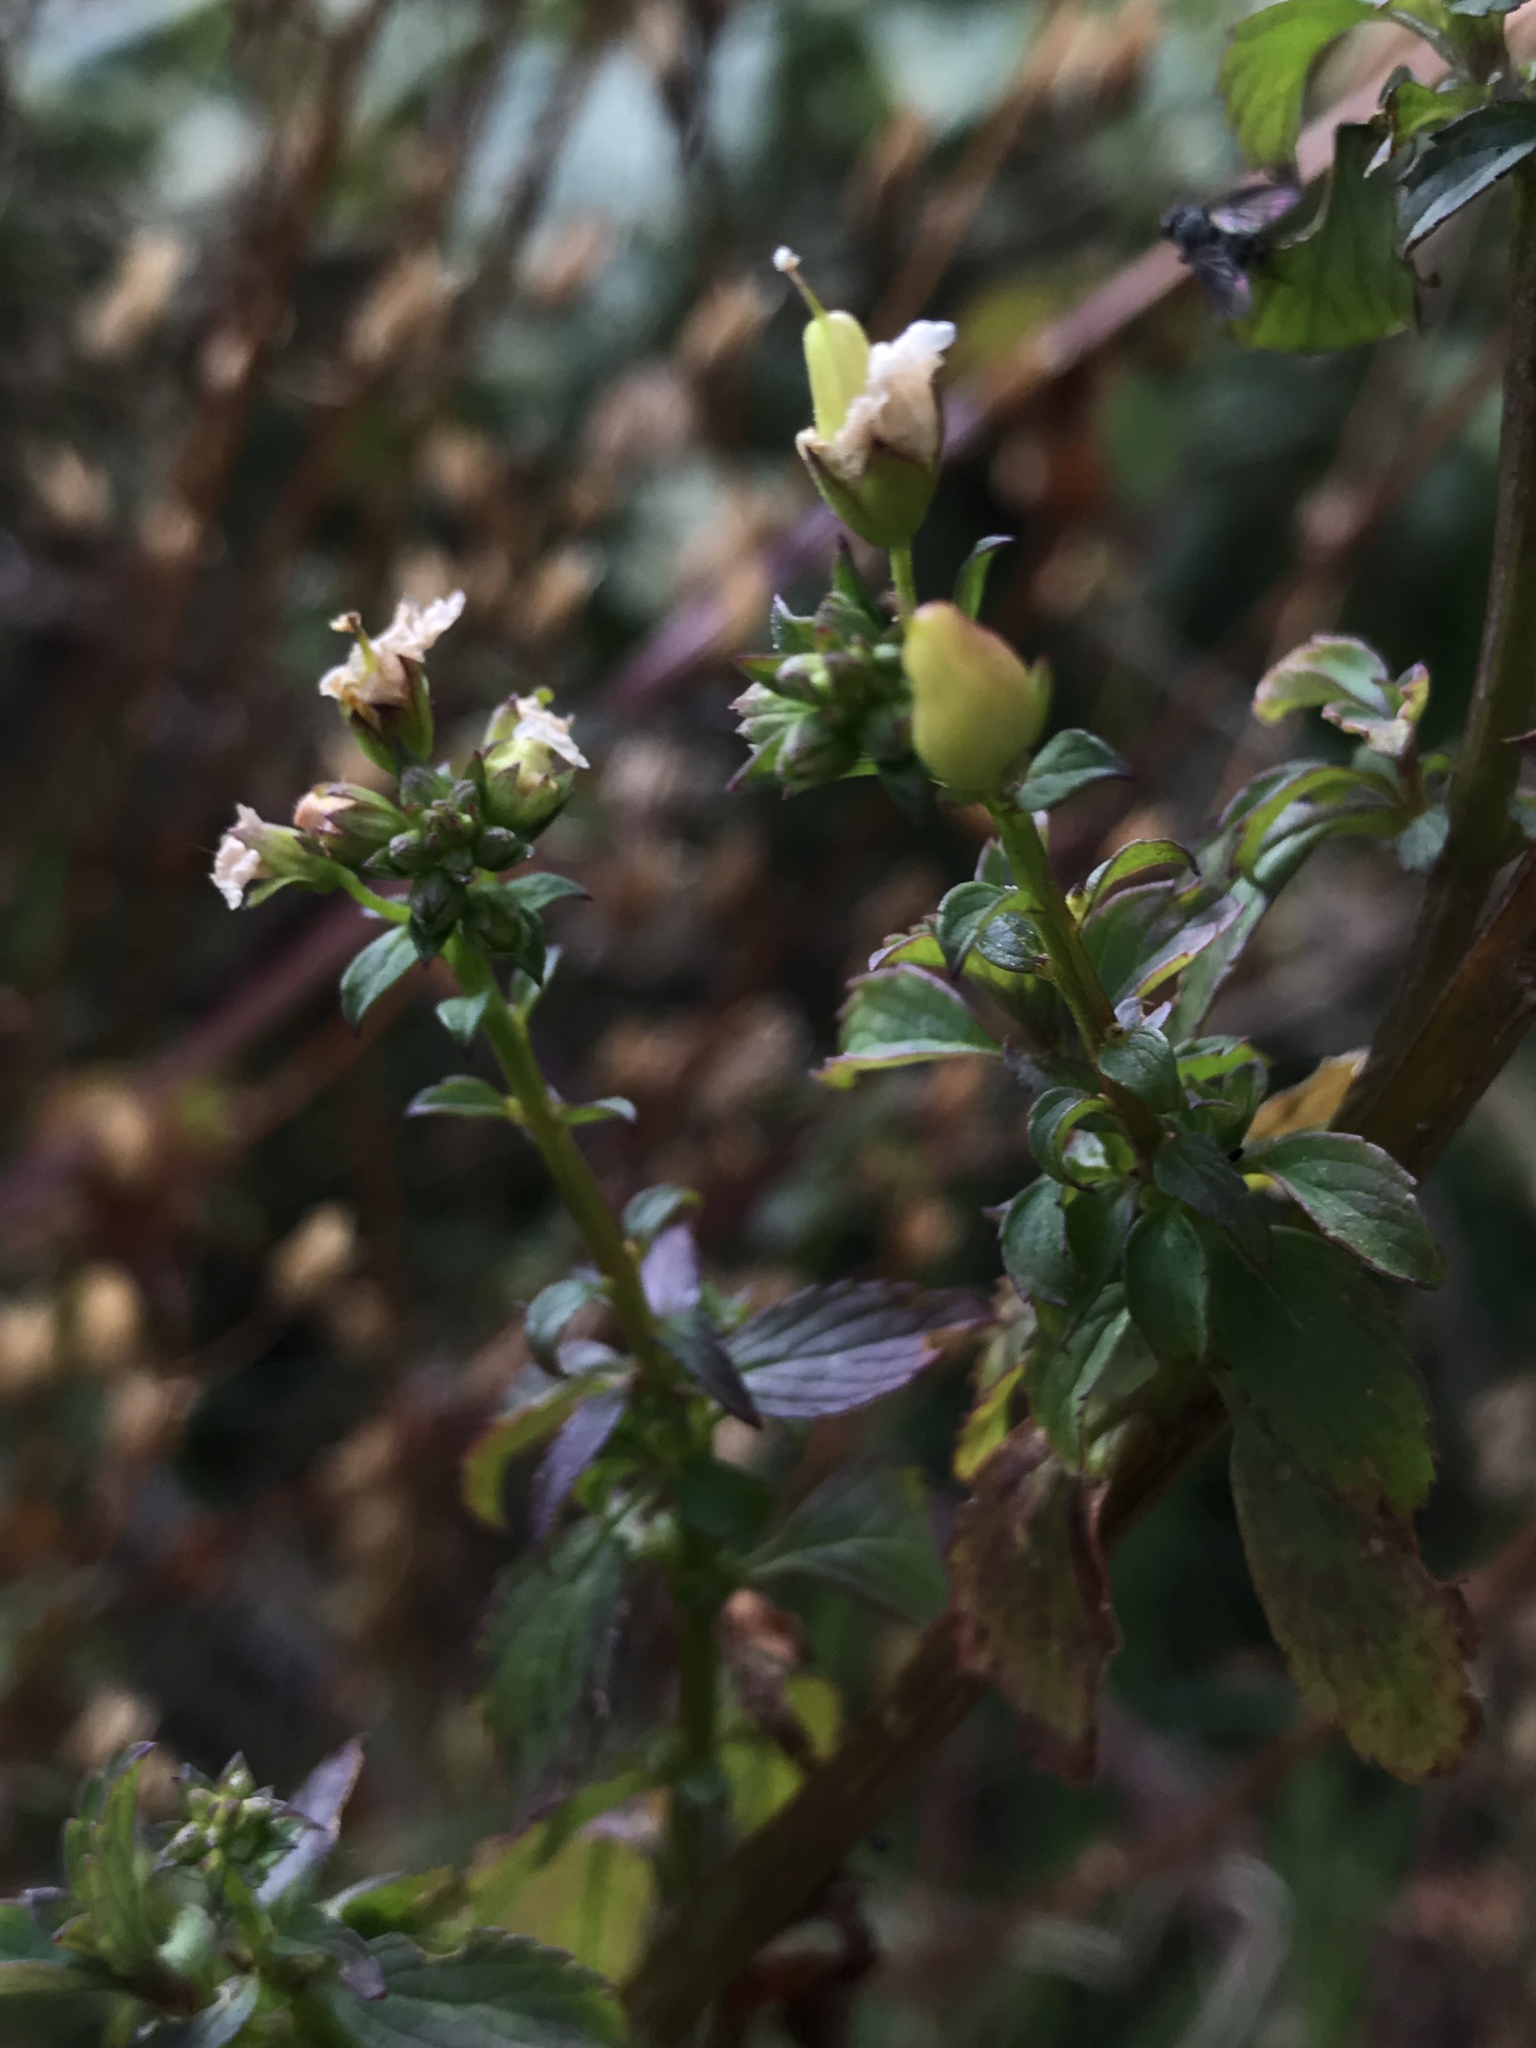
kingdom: Plantae
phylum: Tracheophyta
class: Magnoliopsida
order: Lamiales
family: Scrophulariaceae
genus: Alonsoa
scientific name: Alonsoa meridionalis
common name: Maskflower
